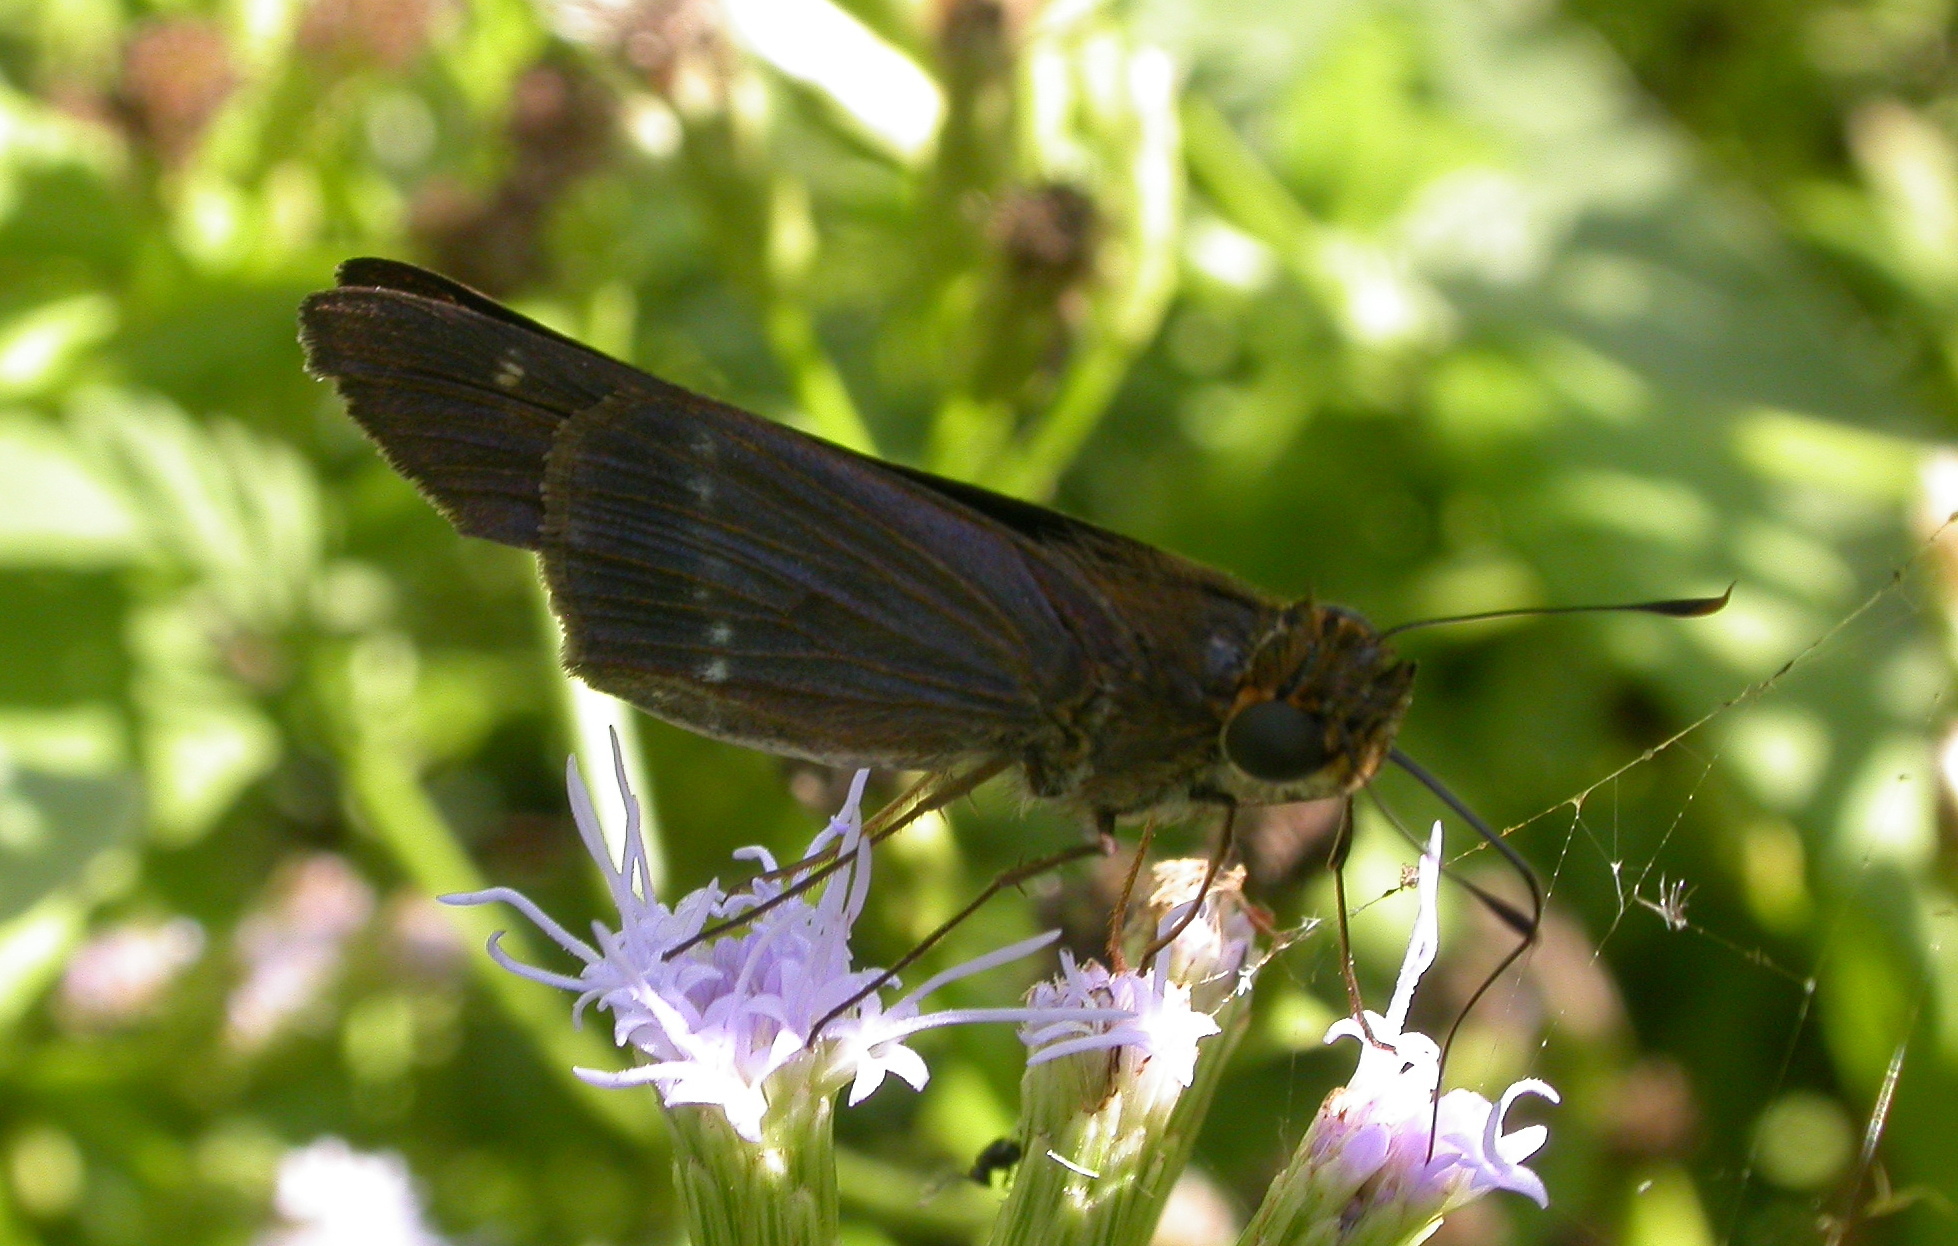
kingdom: Animalia
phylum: Arthropoda
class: Insecta
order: Lepidoptera
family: Hesperiidae
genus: Turesis
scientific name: Turesis lucas
